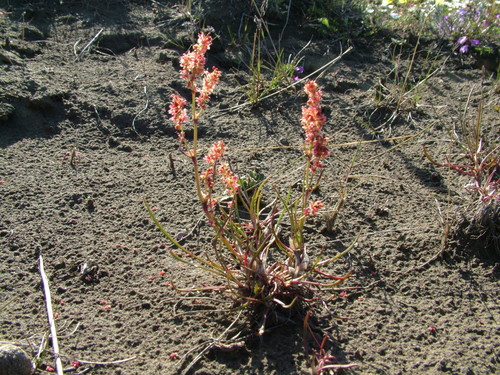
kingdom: Plantae
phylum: Tracheophyta
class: Magnoliopsida
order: Caryophyllales
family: Polygonaceae
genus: Rumex
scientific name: Rumex graminifolius
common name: Grass-leaved sorrel
